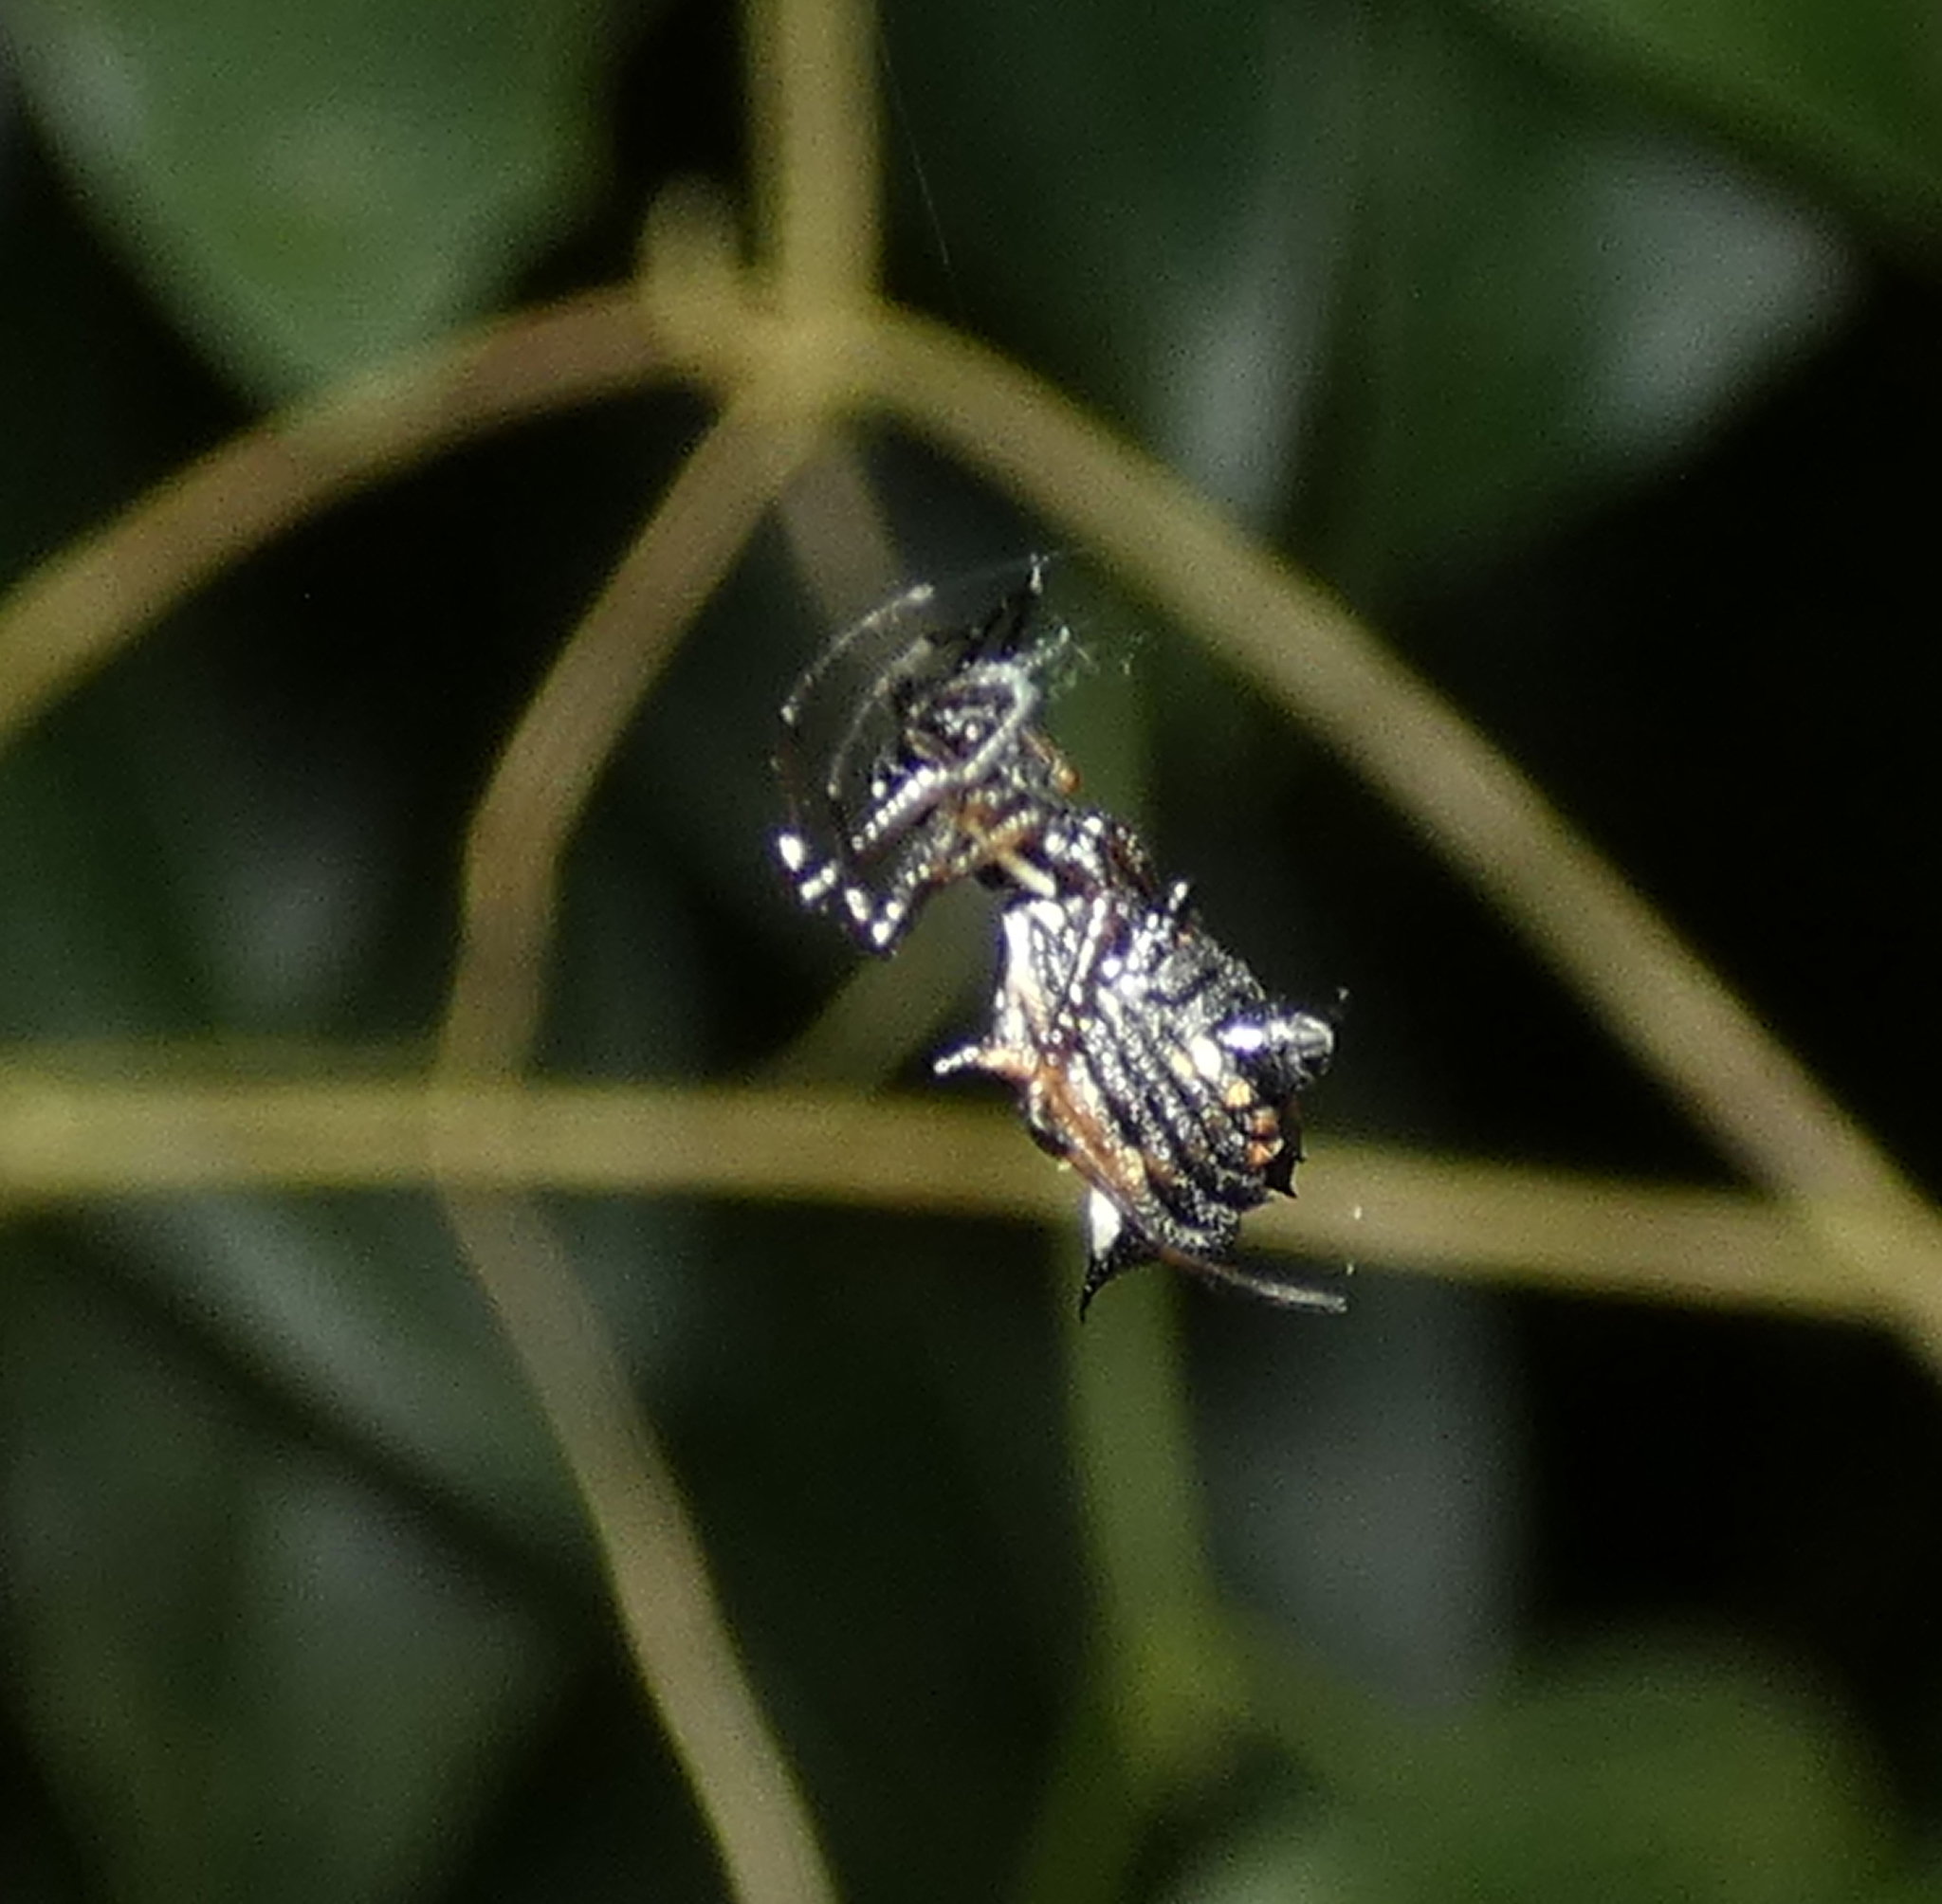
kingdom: Animalia
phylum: Arthropoda
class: Arachnida
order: Araneae
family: Araneidae
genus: Micrathena
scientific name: Micrathena picta
